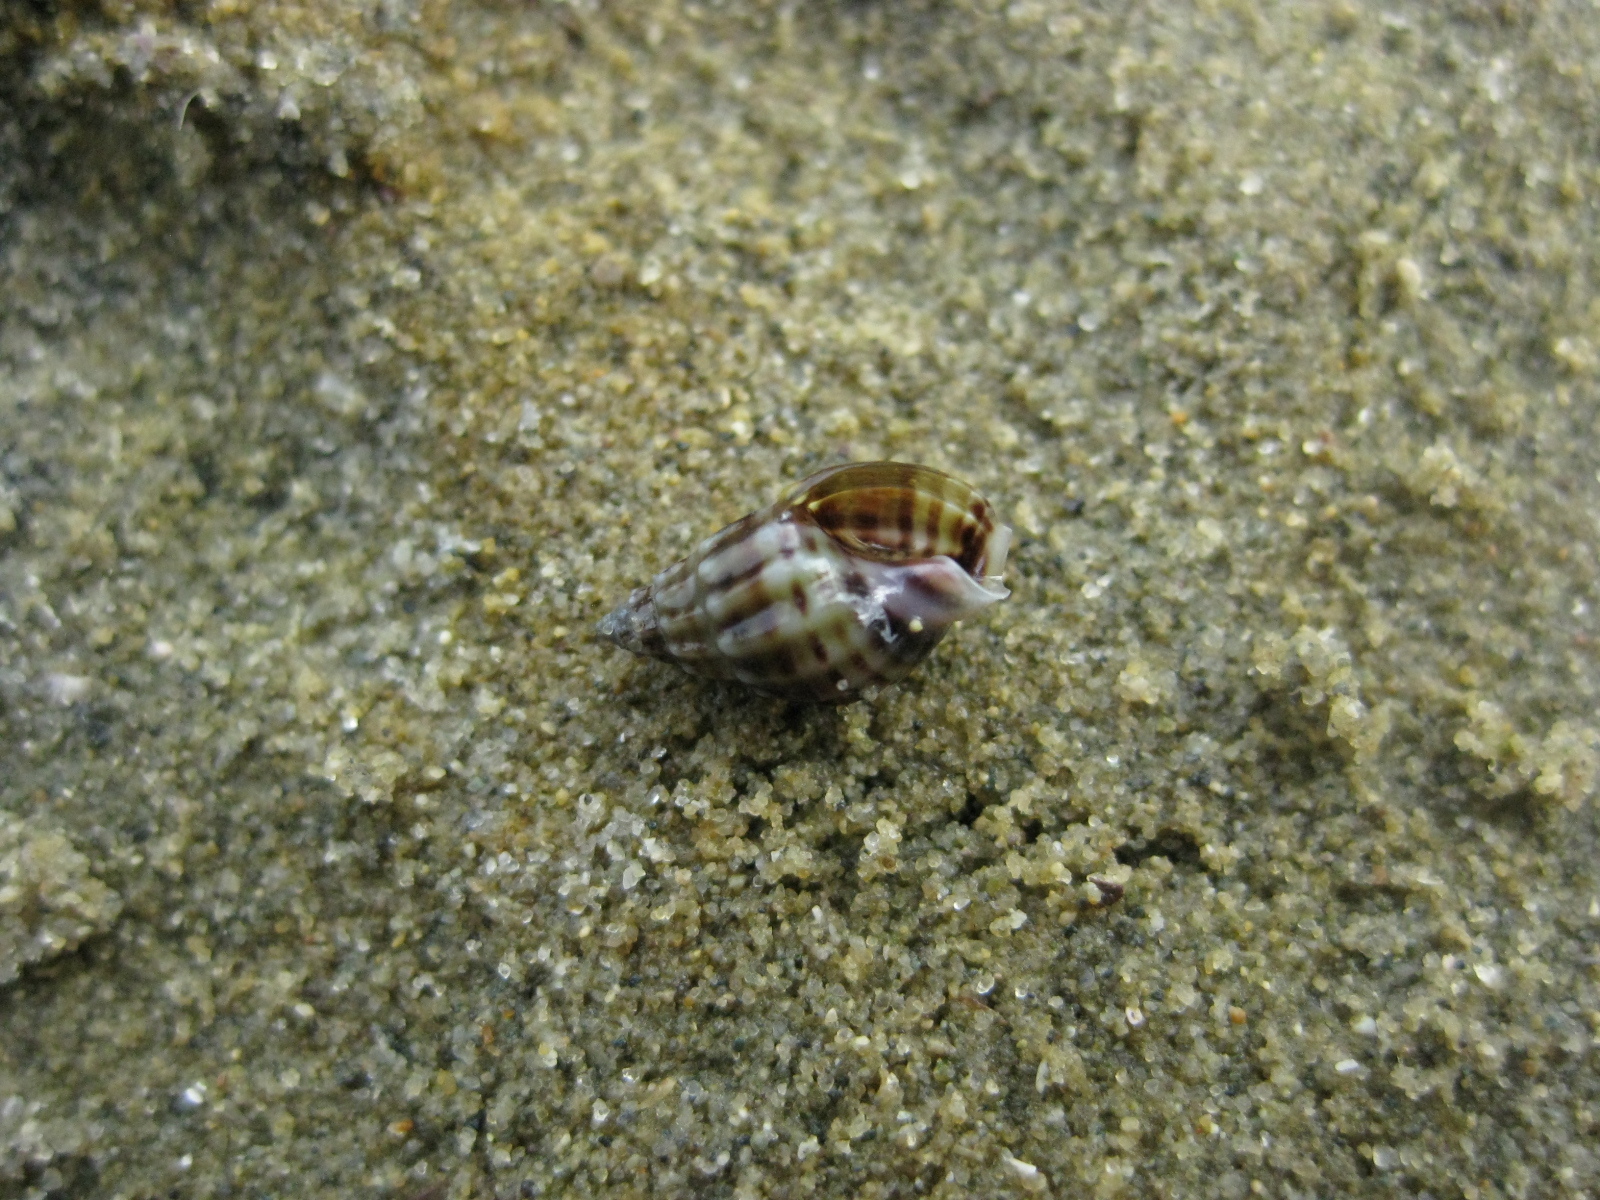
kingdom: Animalia
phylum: Mollusca
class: Gastropoda
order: Neogastropoda
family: Nassariidae
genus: Tritia
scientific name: Tritia burchardi
